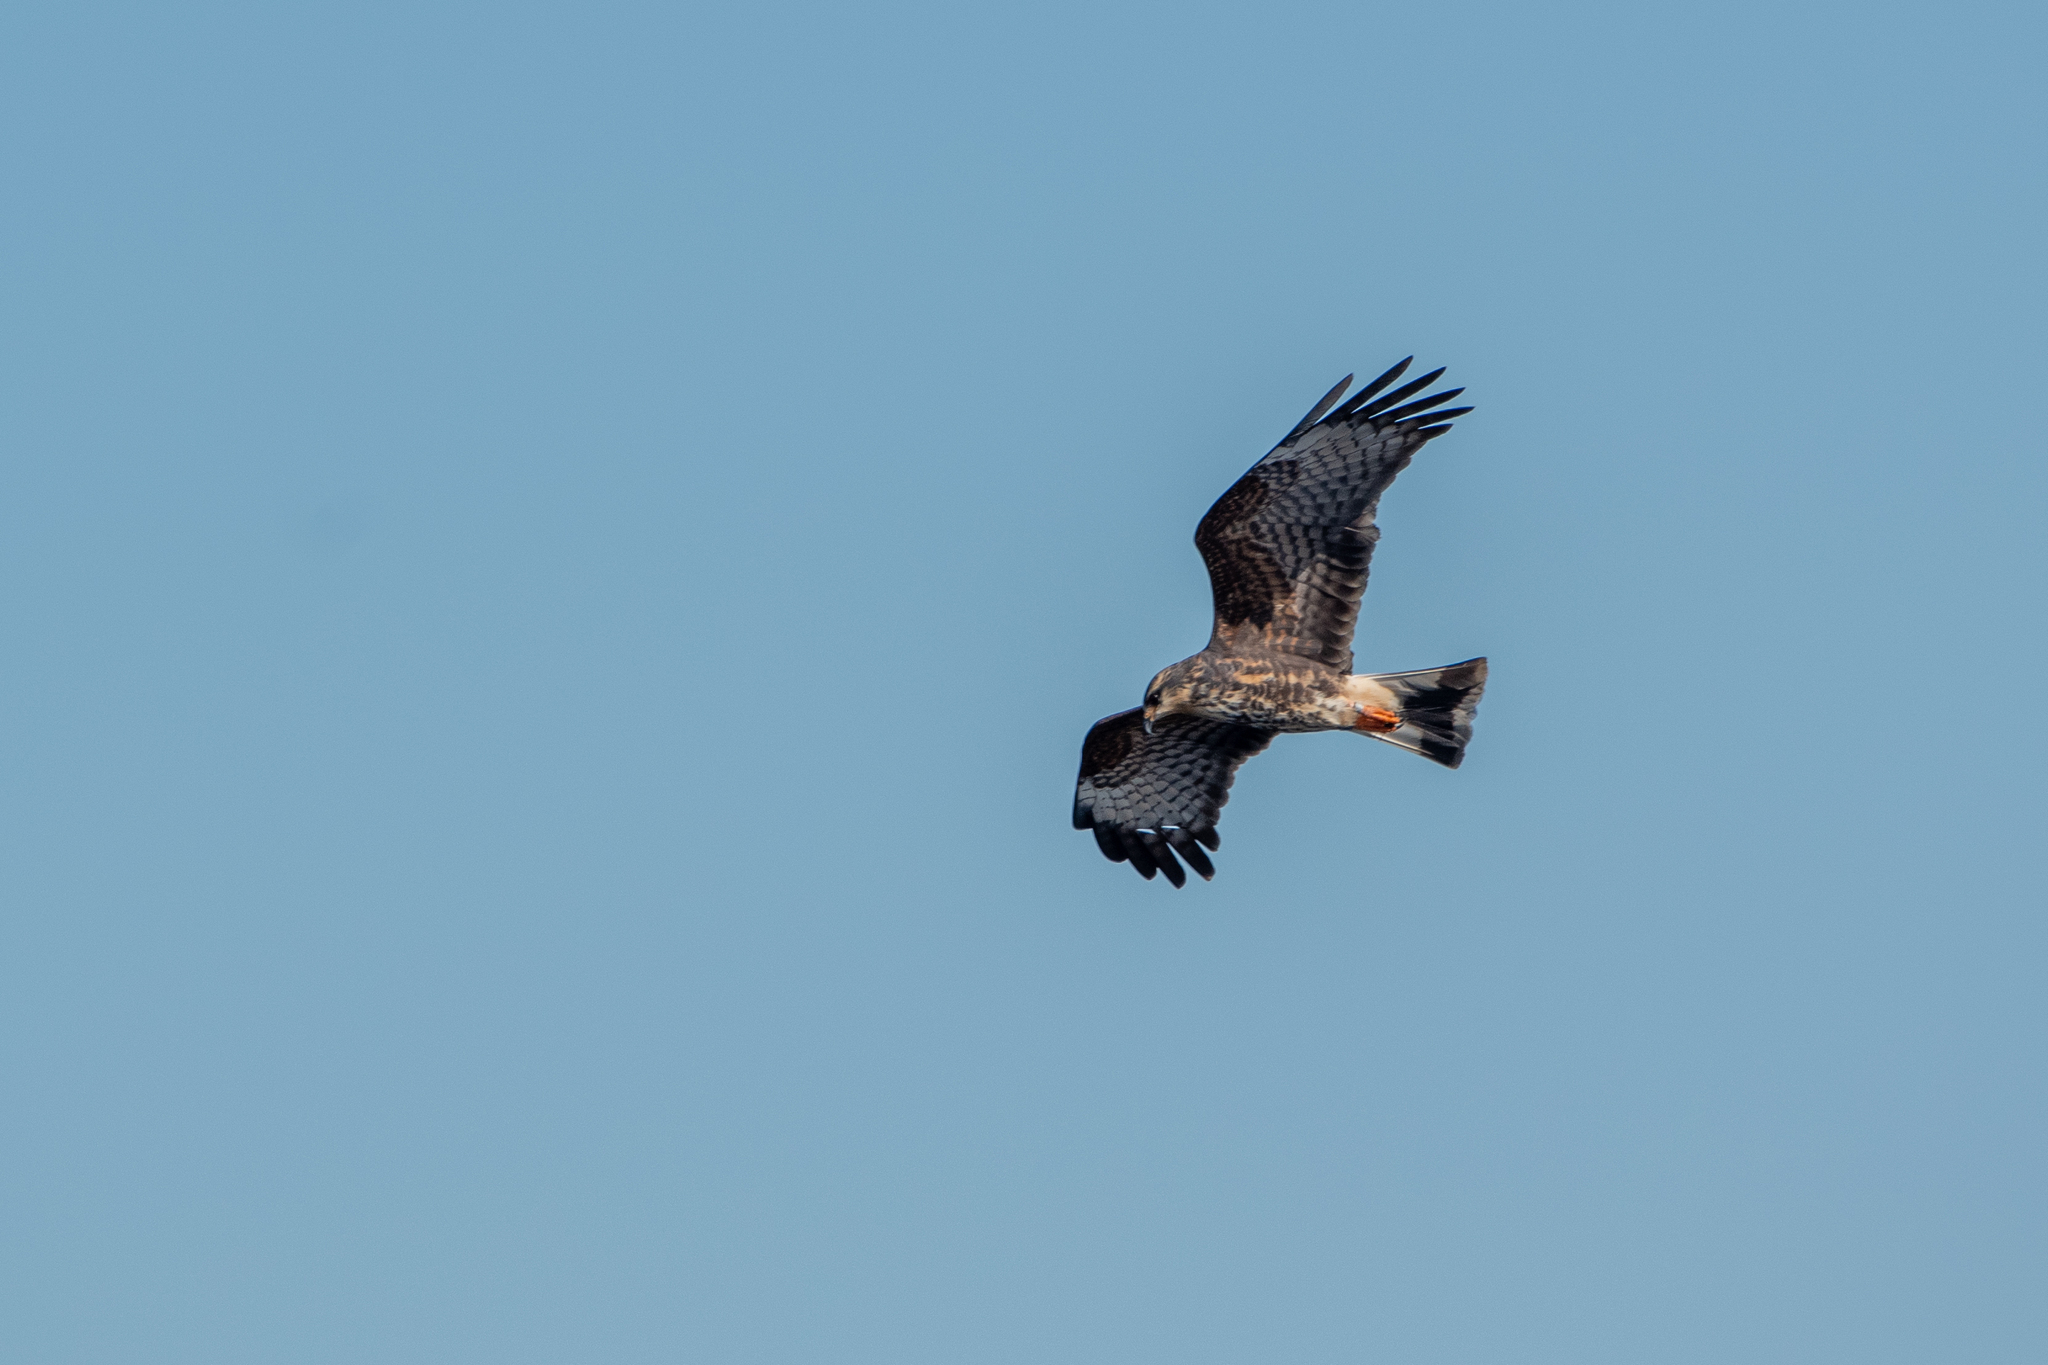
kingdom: Animalia
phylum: Chordata
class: Aves
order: Accipitriformes
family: Accipitridae
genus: Rostrhamus
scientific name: Rostrhamus sociabilis
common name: Snail kite
